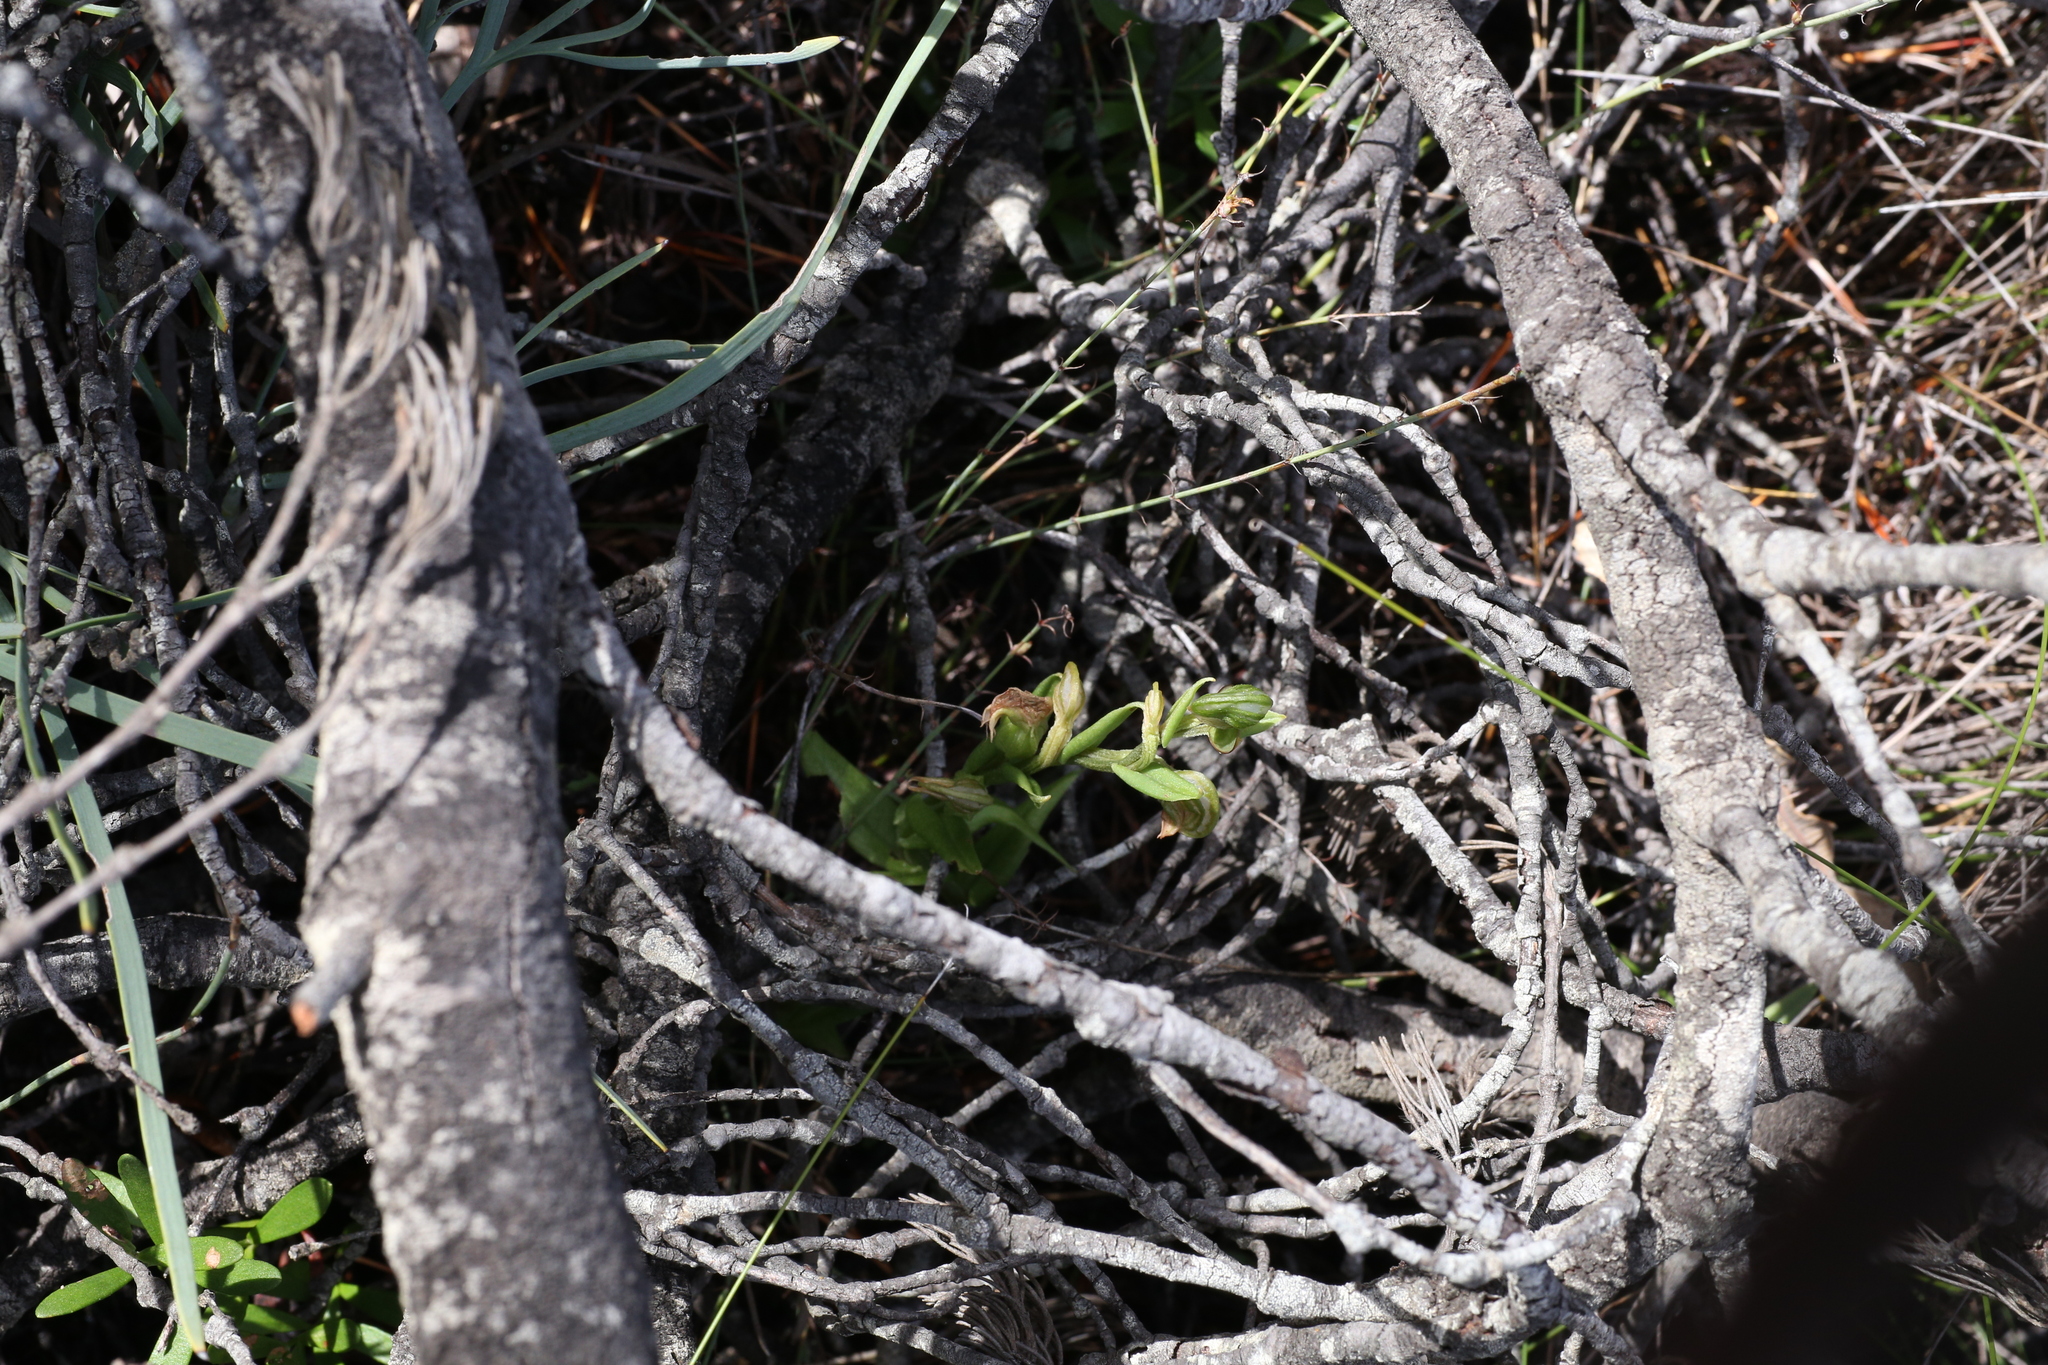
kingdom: Plantae
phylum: Tracheophyta
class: Liliopsida
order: Asparagales
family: Orchidaceae
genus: Pterostylis
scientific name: Pterostylis orbiculata
